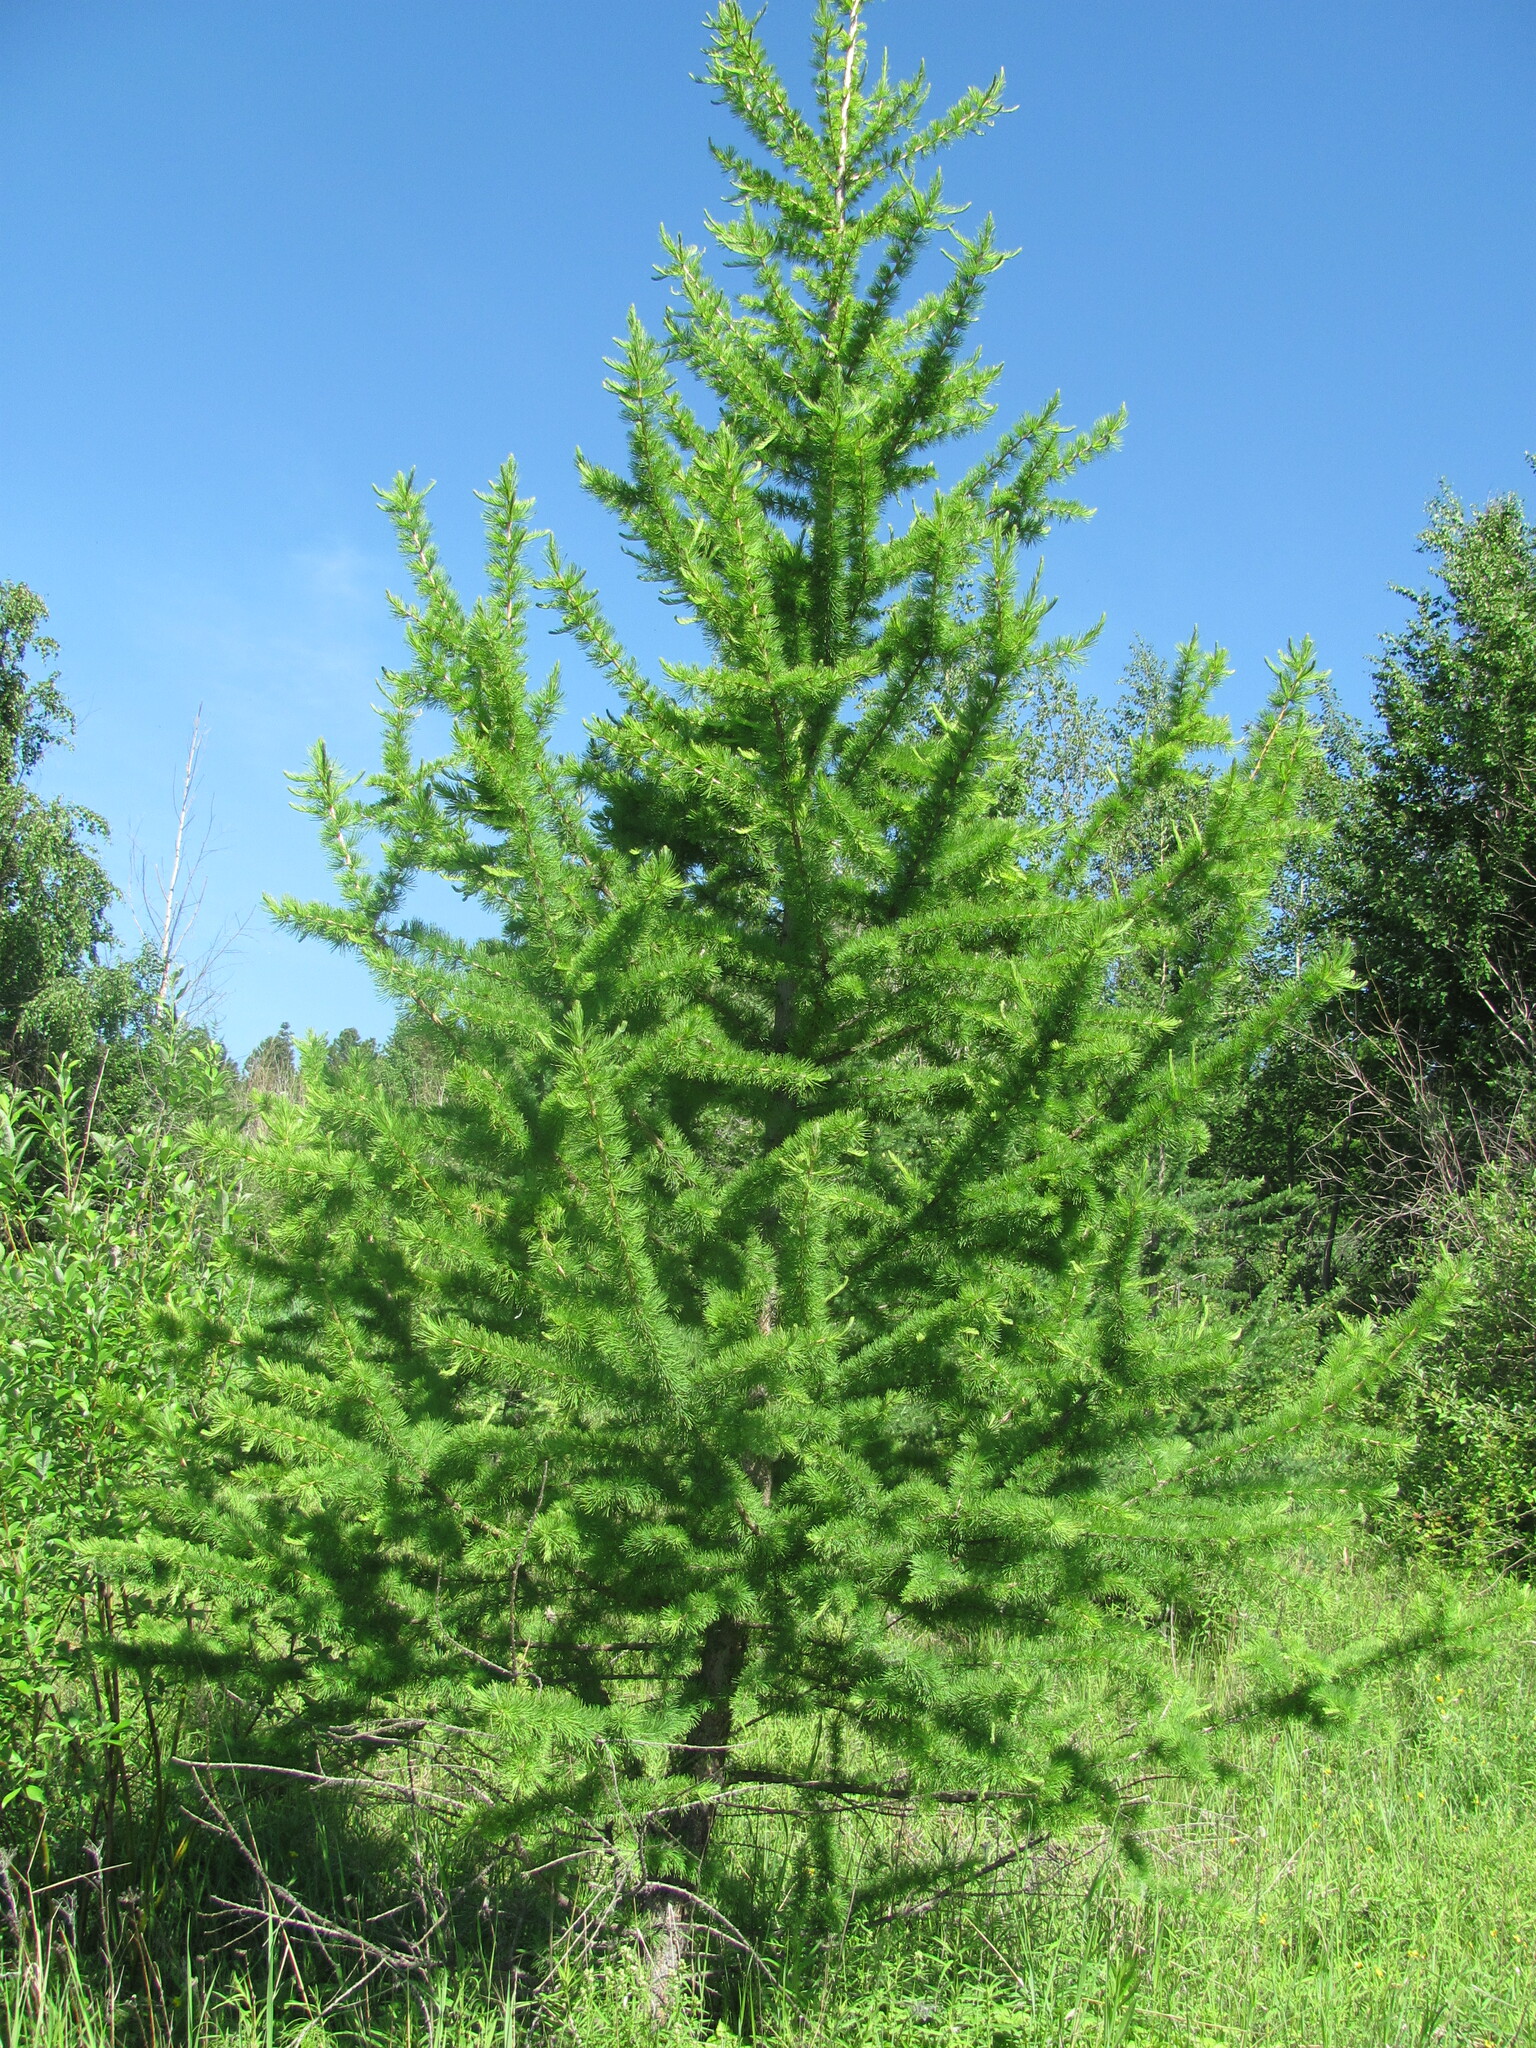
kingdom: Plantae
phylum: Tracheophyta
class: Pinopsida
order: Pinales
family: Pinaceae
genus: Larix
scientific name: Larix sibirica
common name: Siberian larch
